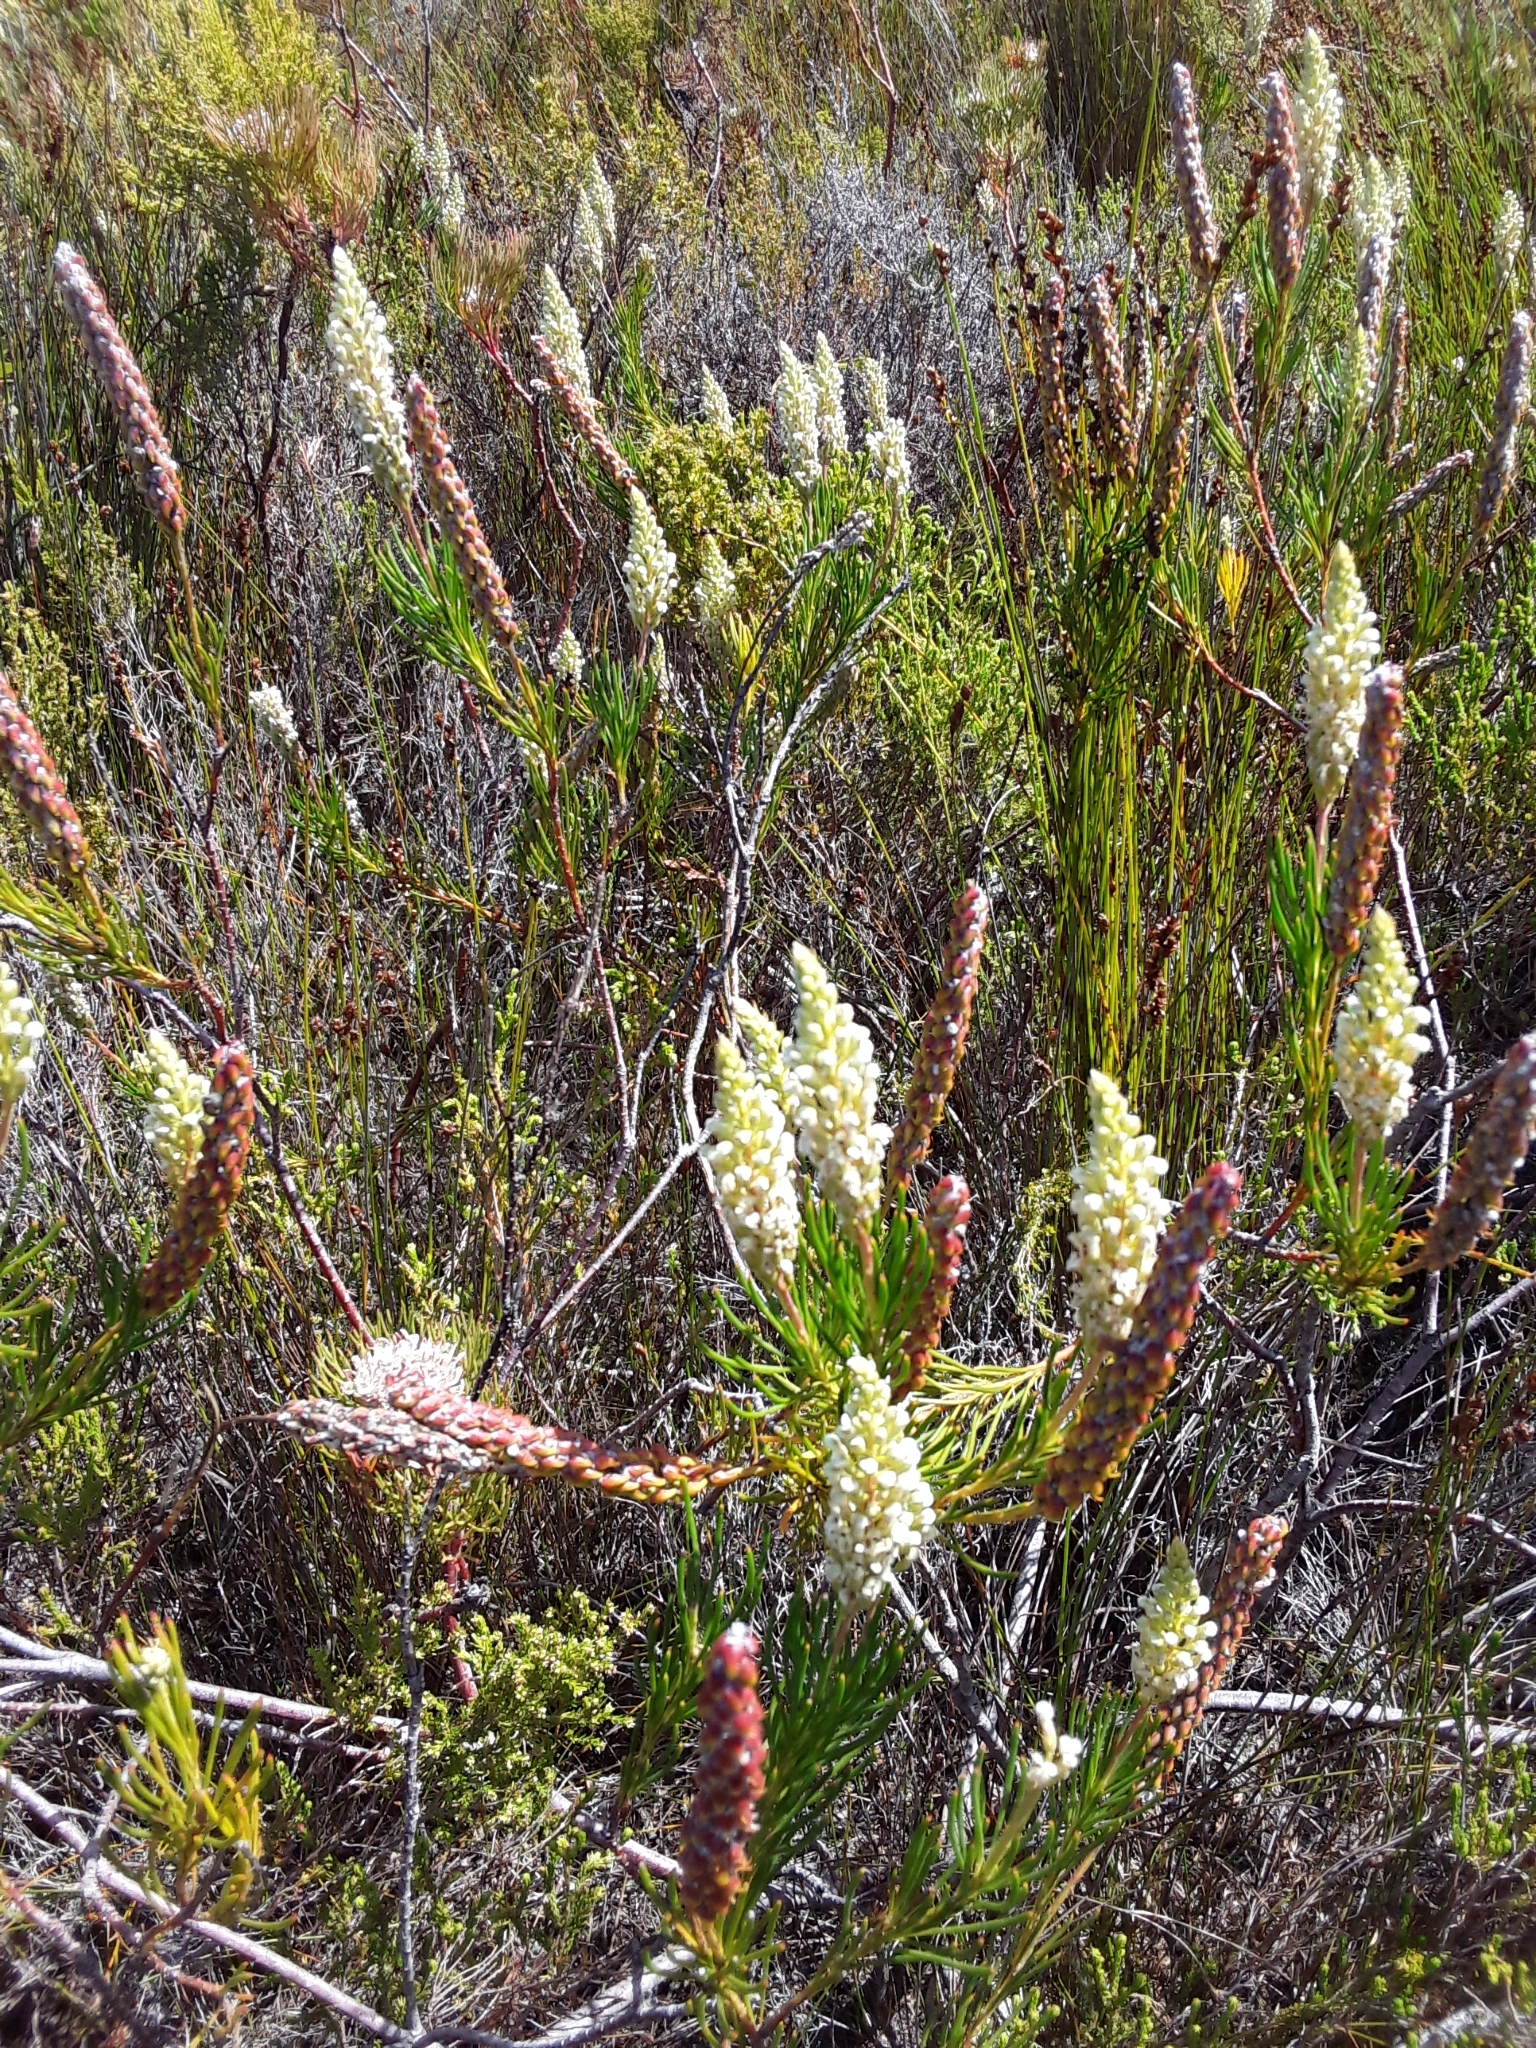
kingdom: Plantae
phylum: Tracheophyta
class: Magnoliopsida
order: Proteales
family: Proteaceae
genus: Spatalla
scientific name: Spatalla curvifolia
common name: White-stalked spoon
